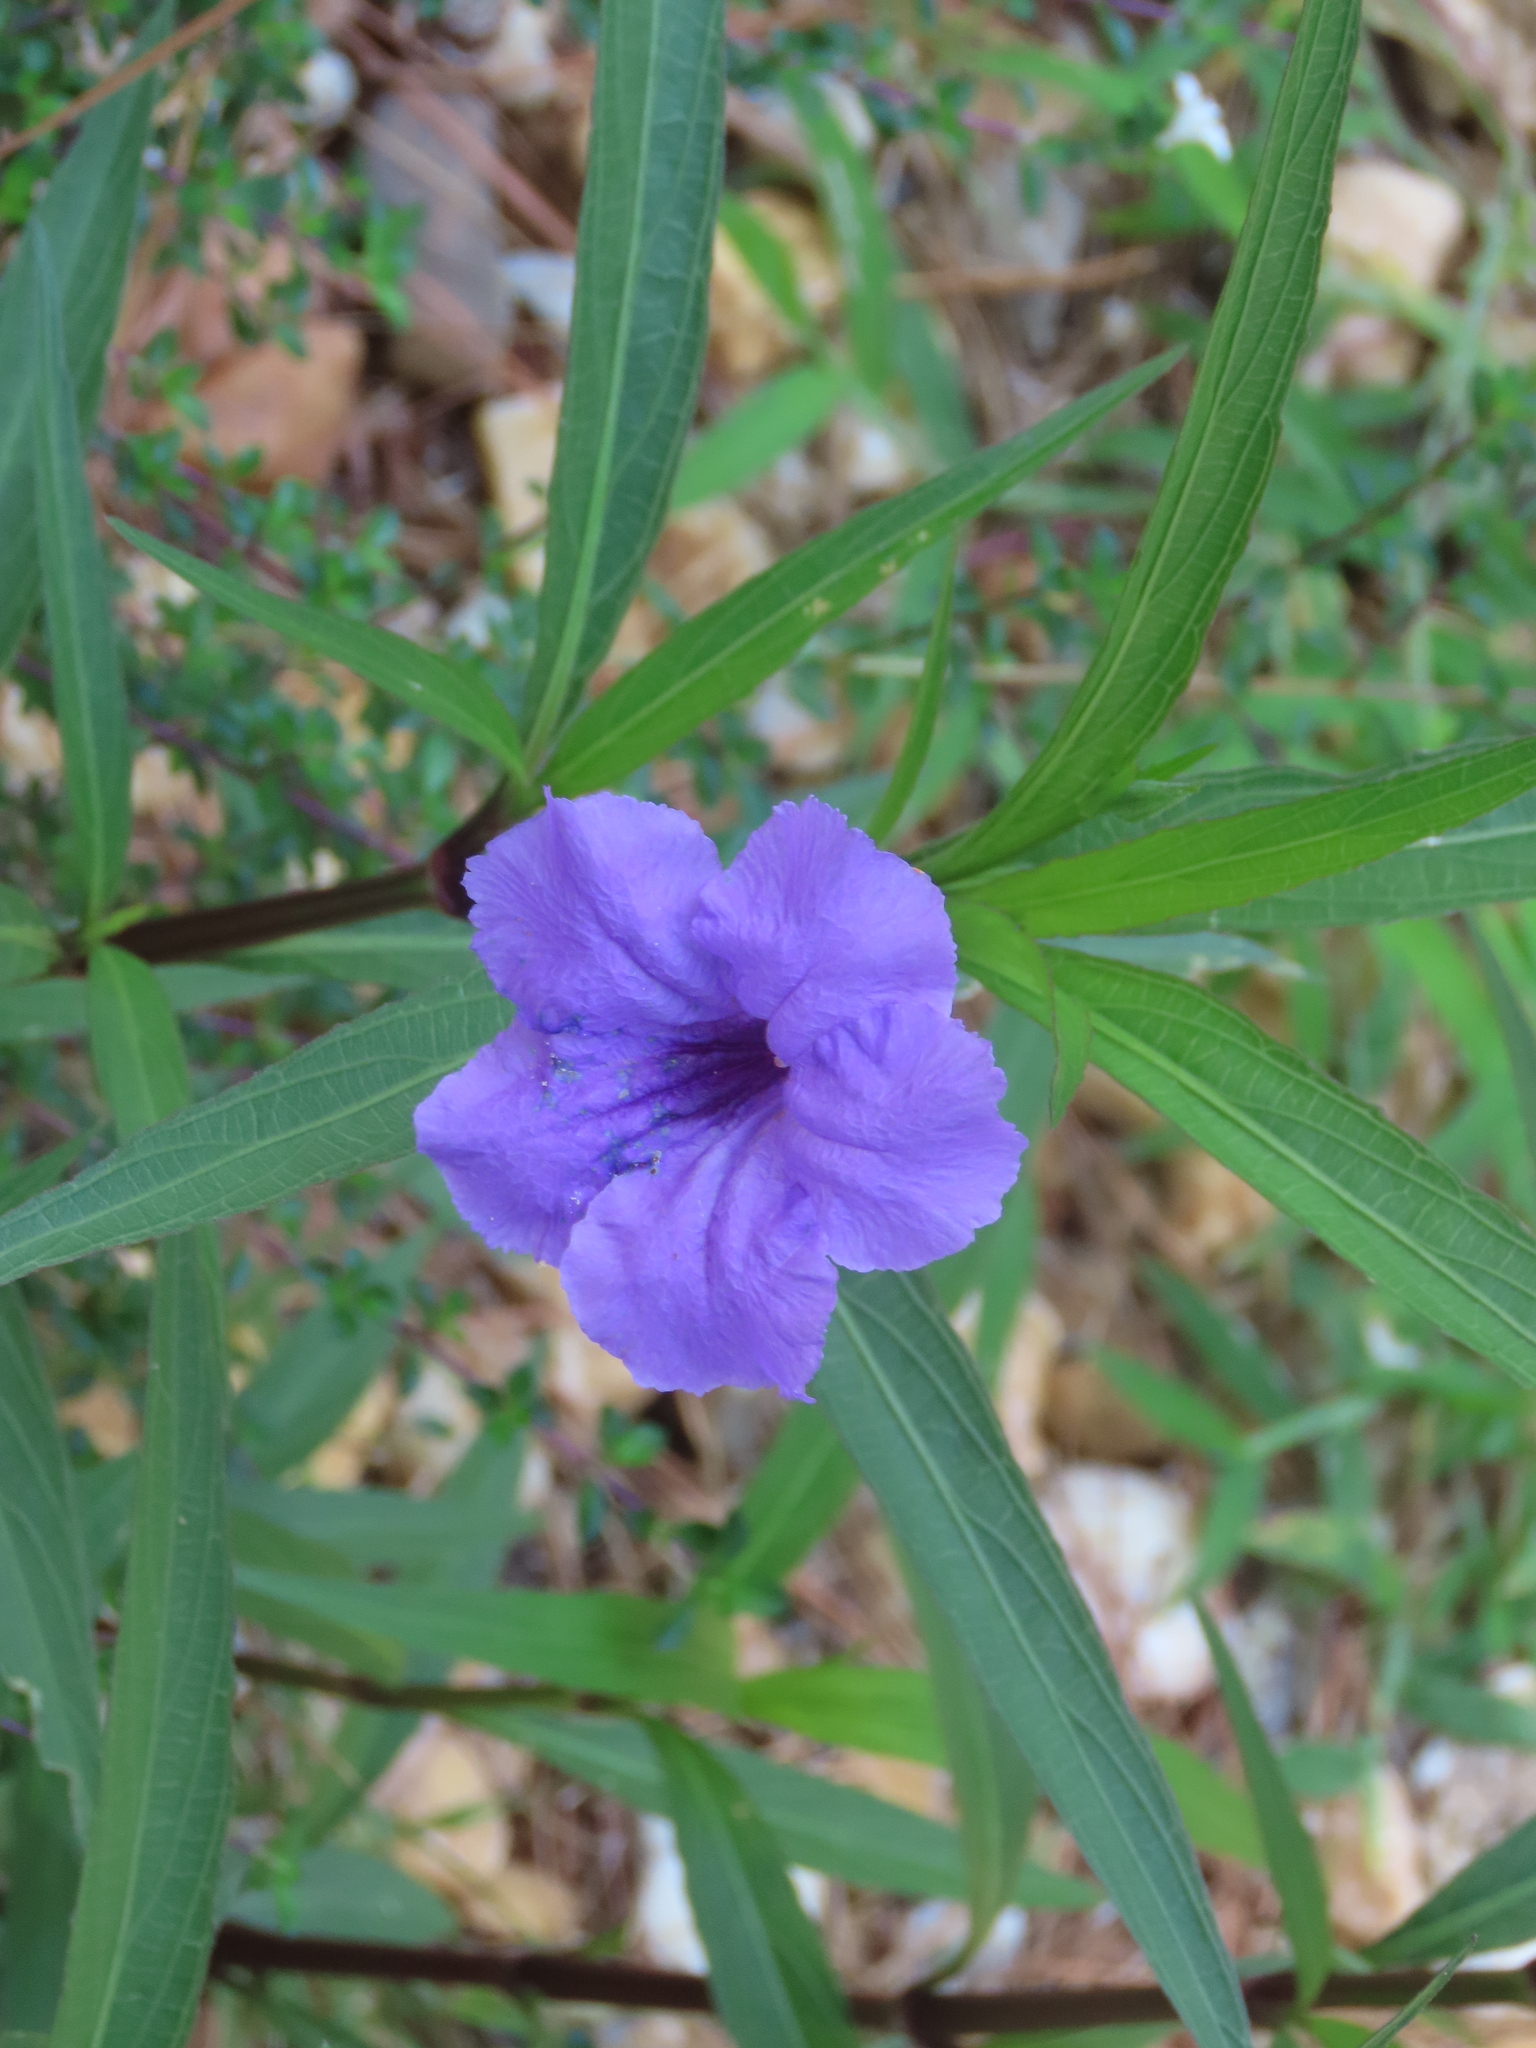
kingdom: Plantae
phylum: Tracheophyta
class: Magnoliopsida
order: Lamiales
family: Acanthaceae
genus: Ruellia
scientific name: Ruellia simplex
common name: Softseed wild petunia
